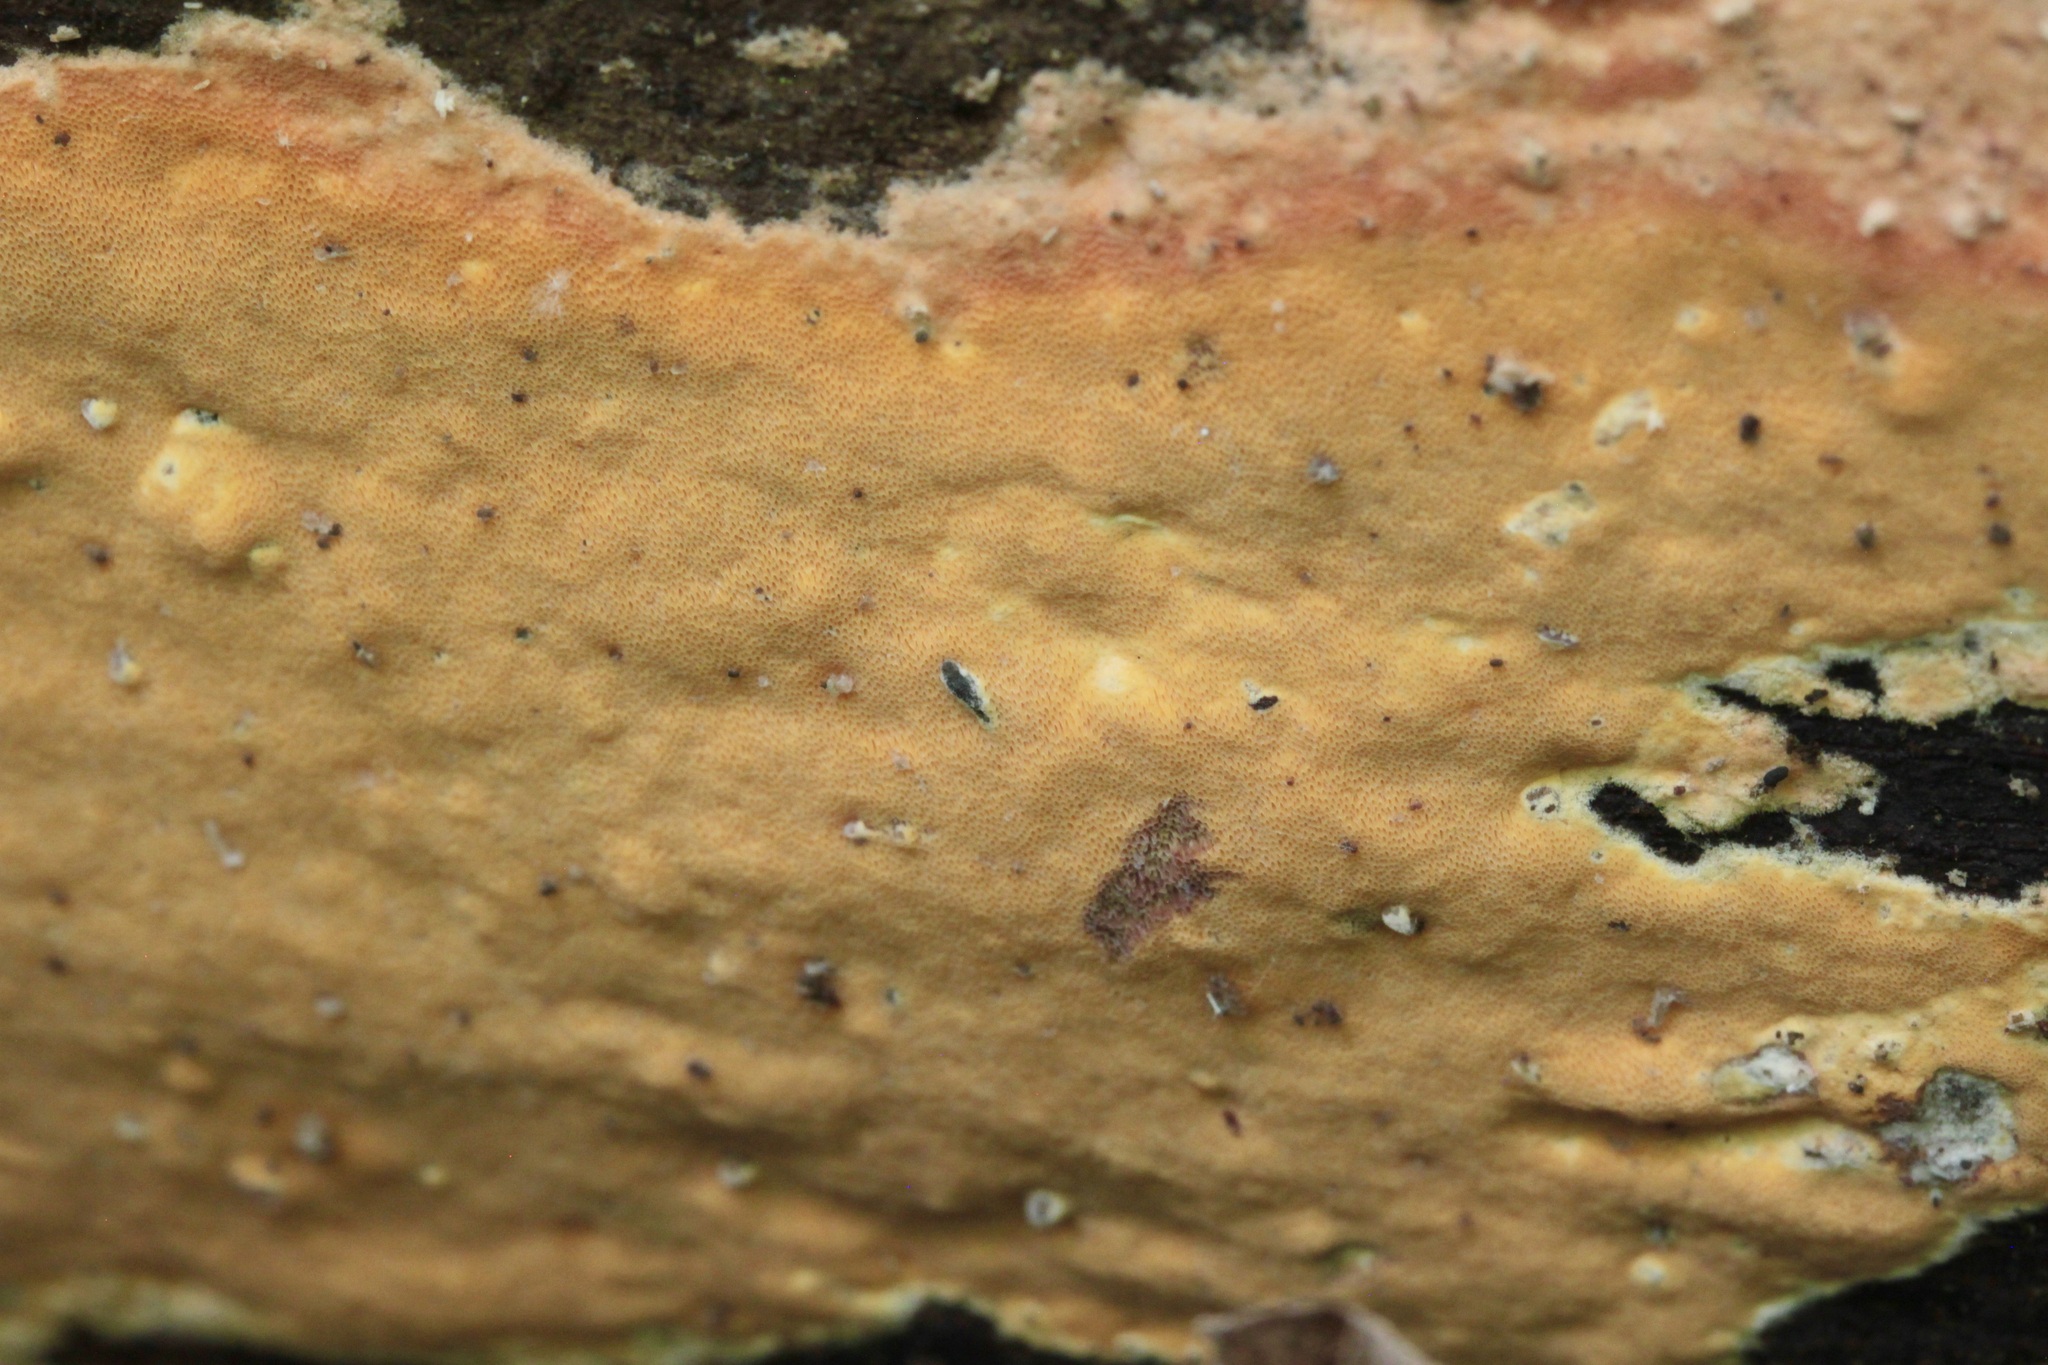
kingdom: Fungi
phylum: Basidiomycota
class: Agaricomycetes
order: Polyporales
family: Irpicaceae
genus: Ceriporia
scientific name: Ceriporia spissa
